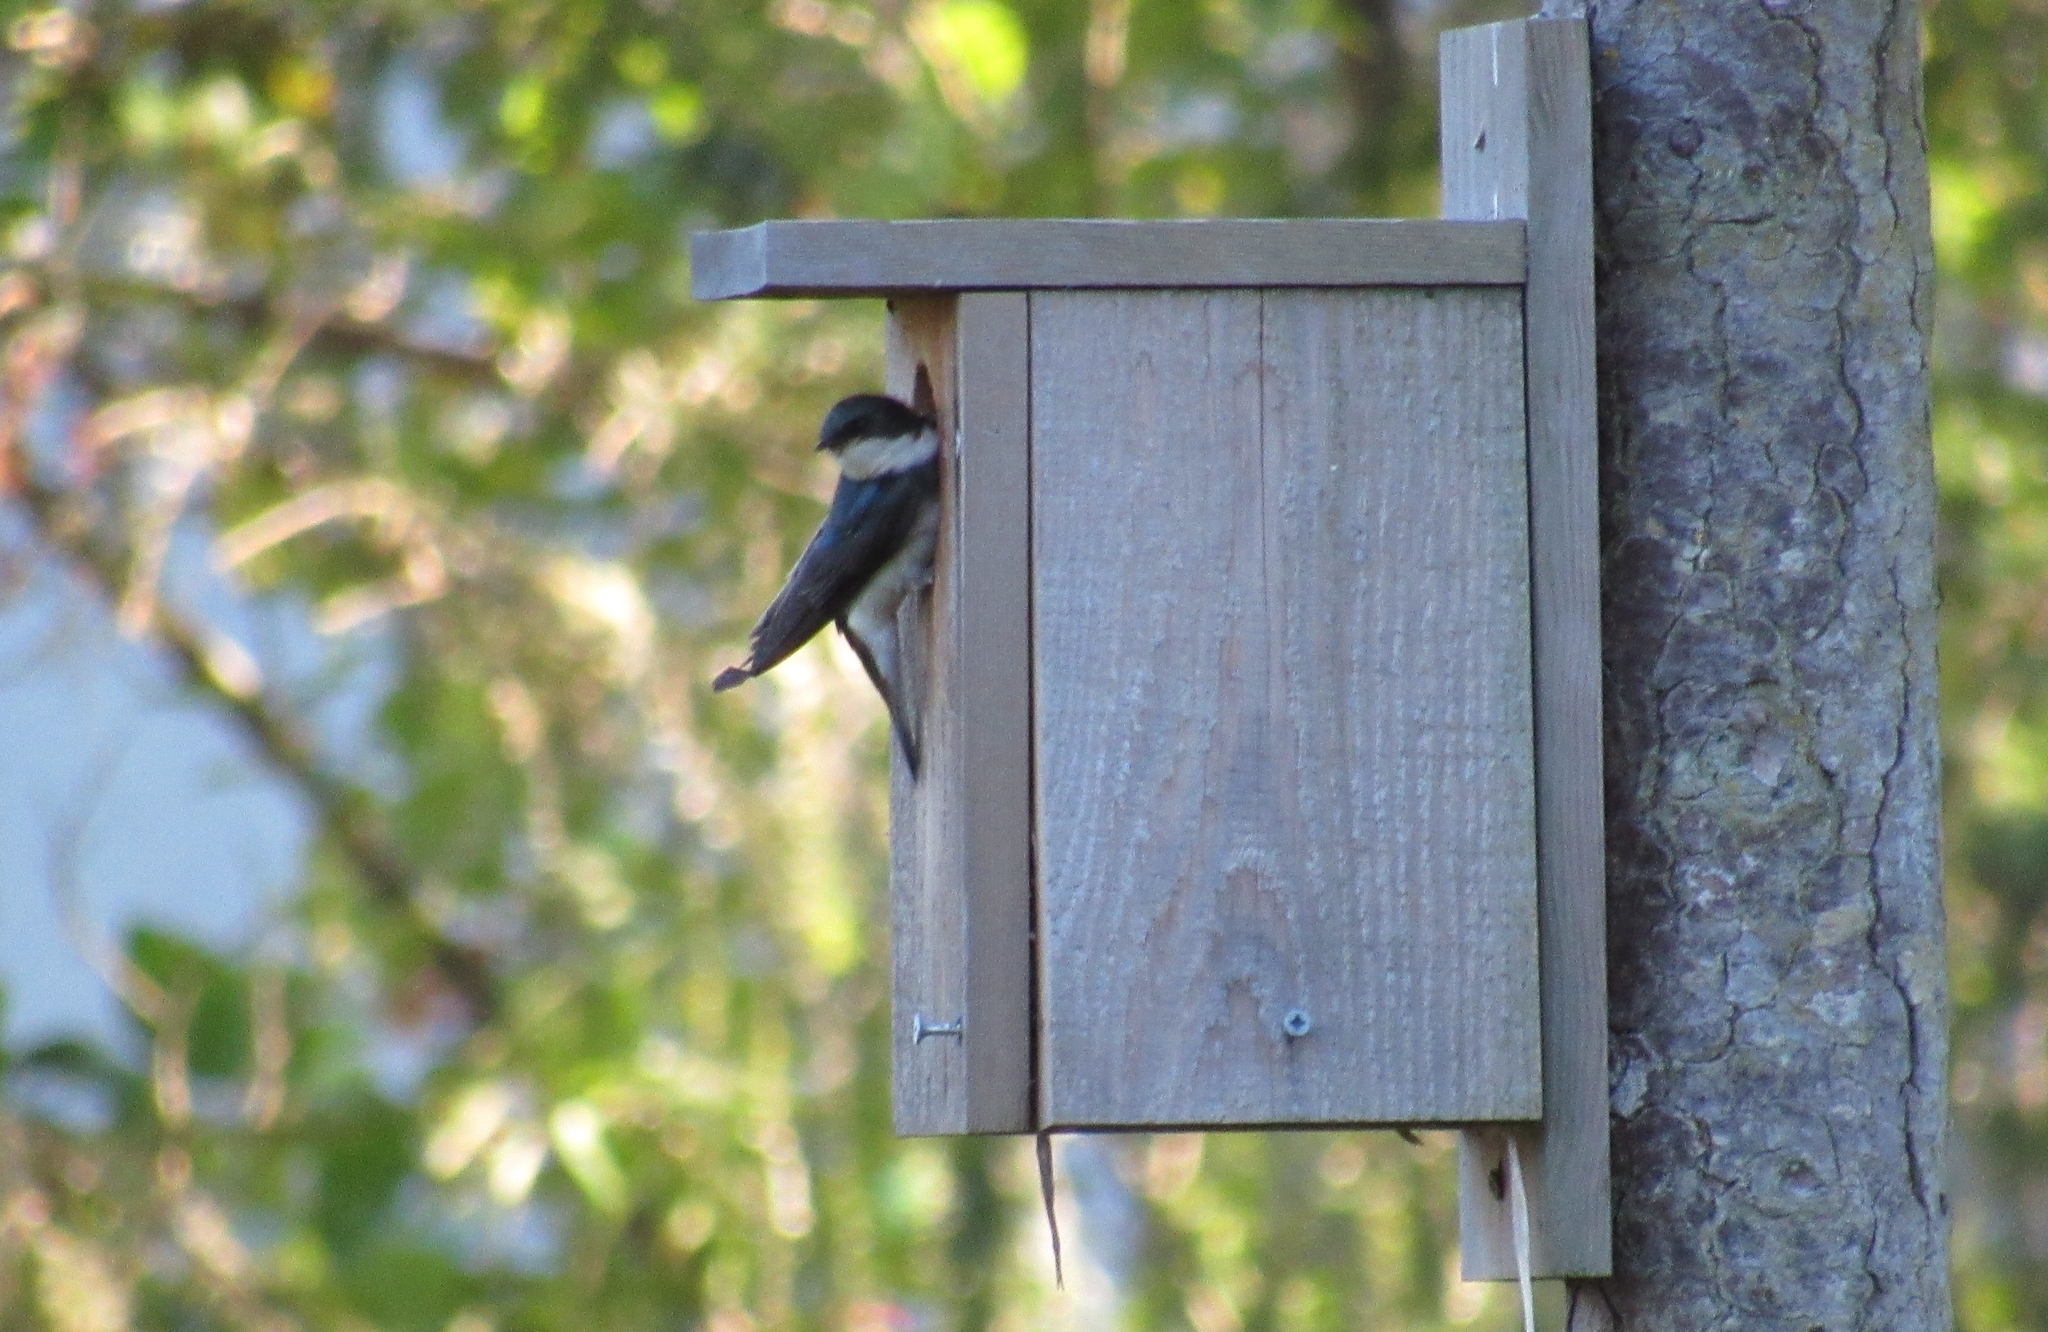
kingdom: Animalia
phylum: Chordata
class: Aves
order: Passeriformes
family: Hirundinidae
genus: Tachycineta
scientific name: Tachycineta bicolor
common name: Tree swallow
